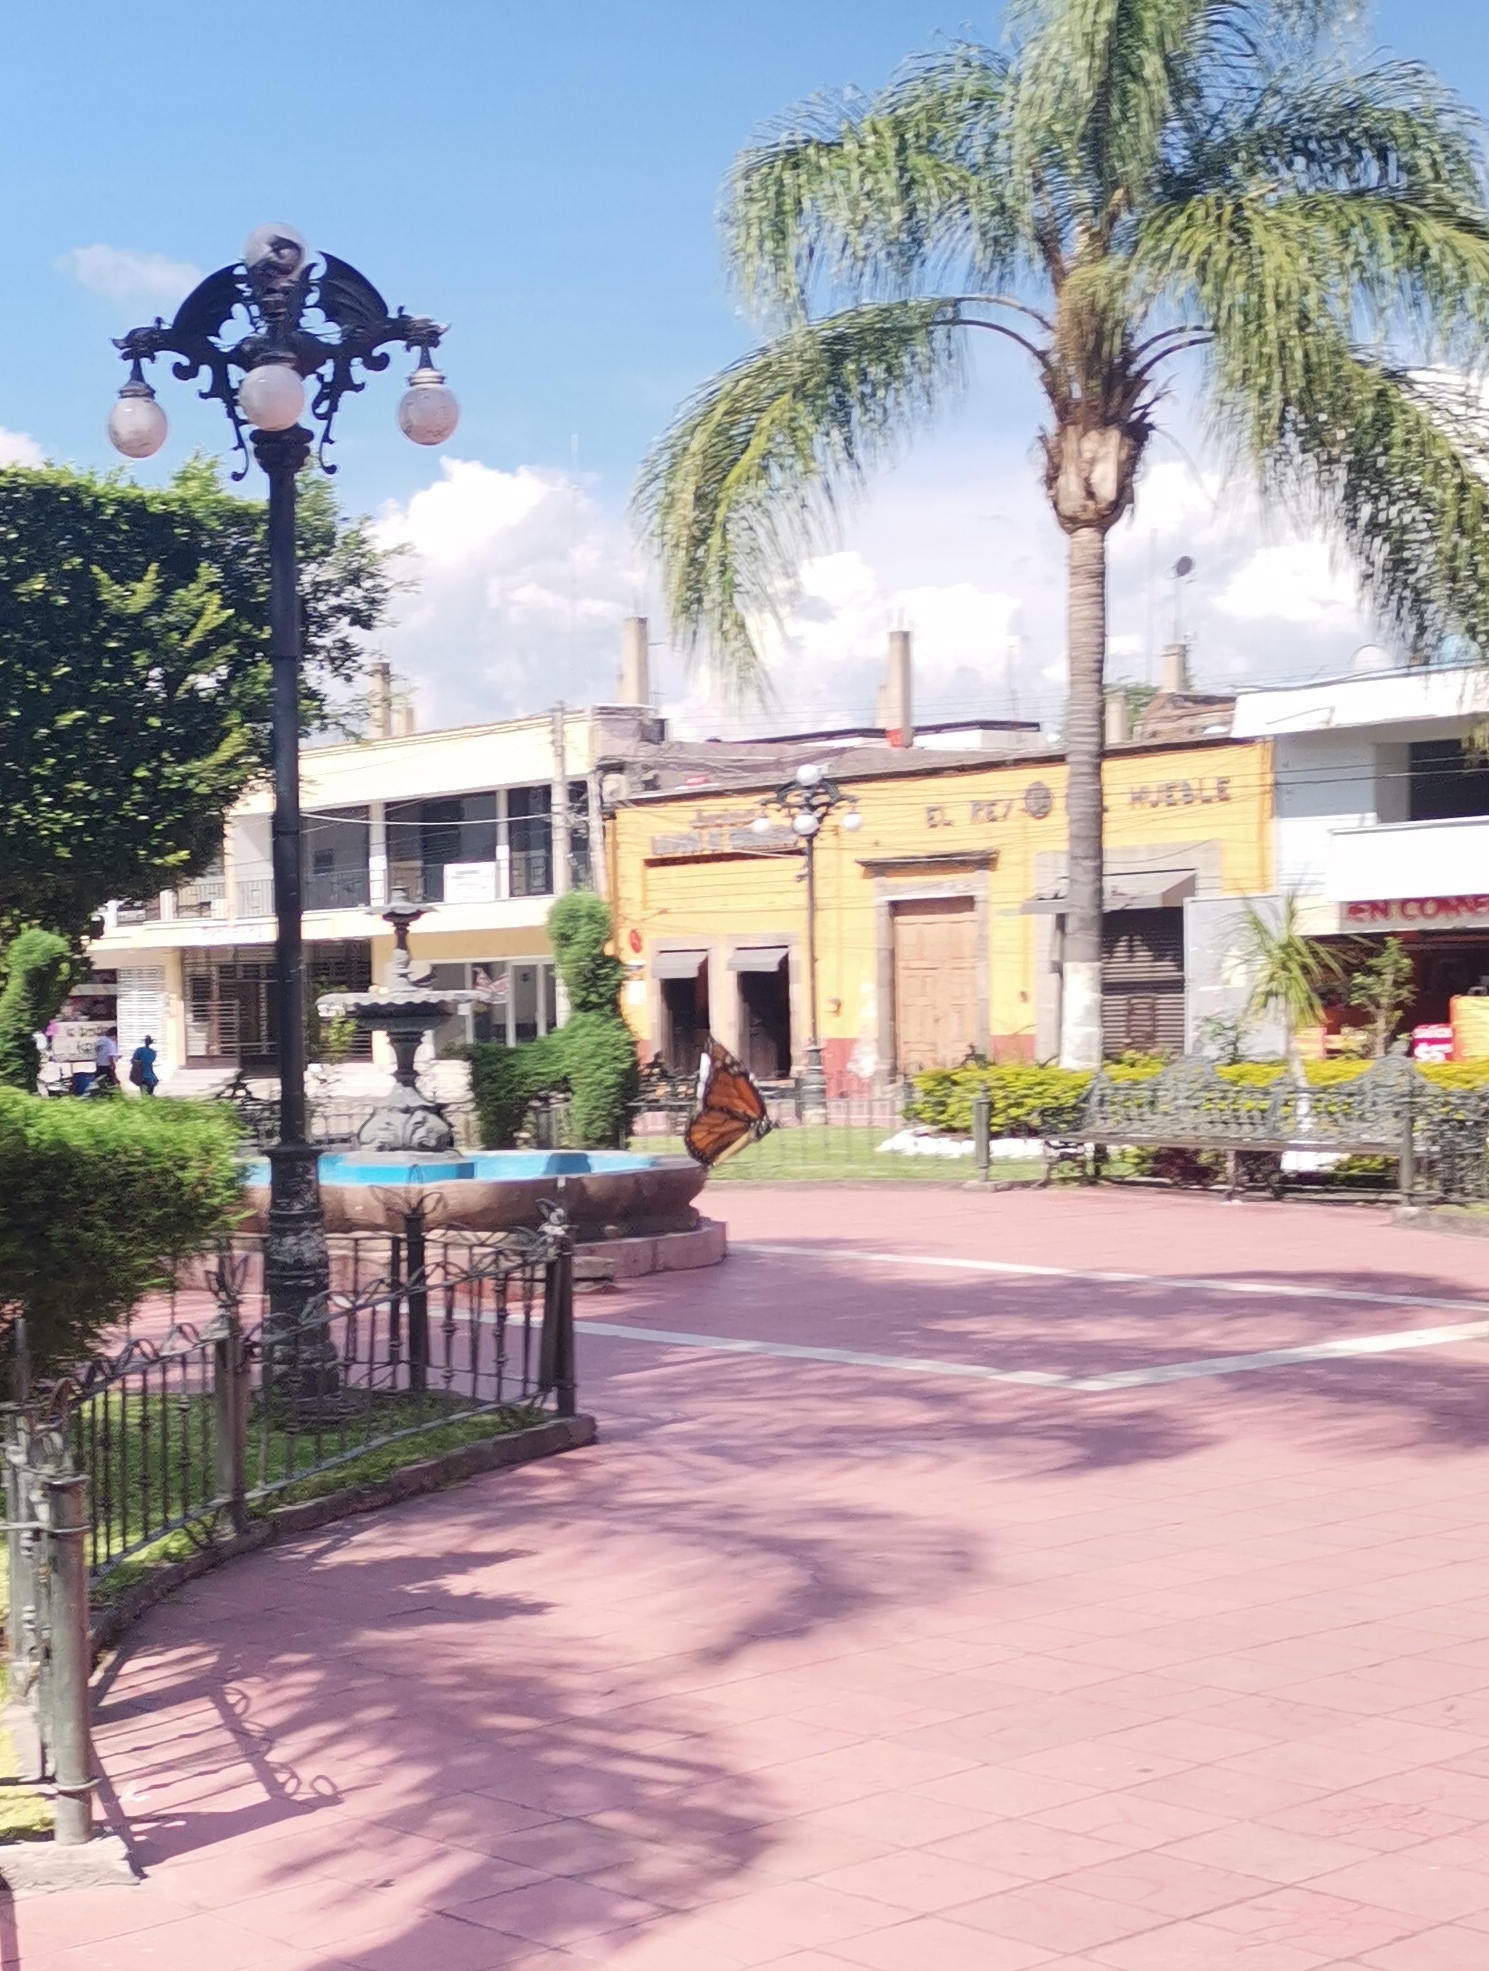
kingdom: Animalia
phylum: Arthropoda
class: Insecta
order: Lepidoptera
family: Nymphalidae
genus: Danaus
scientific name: Danaus plexippus
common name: Monarch
